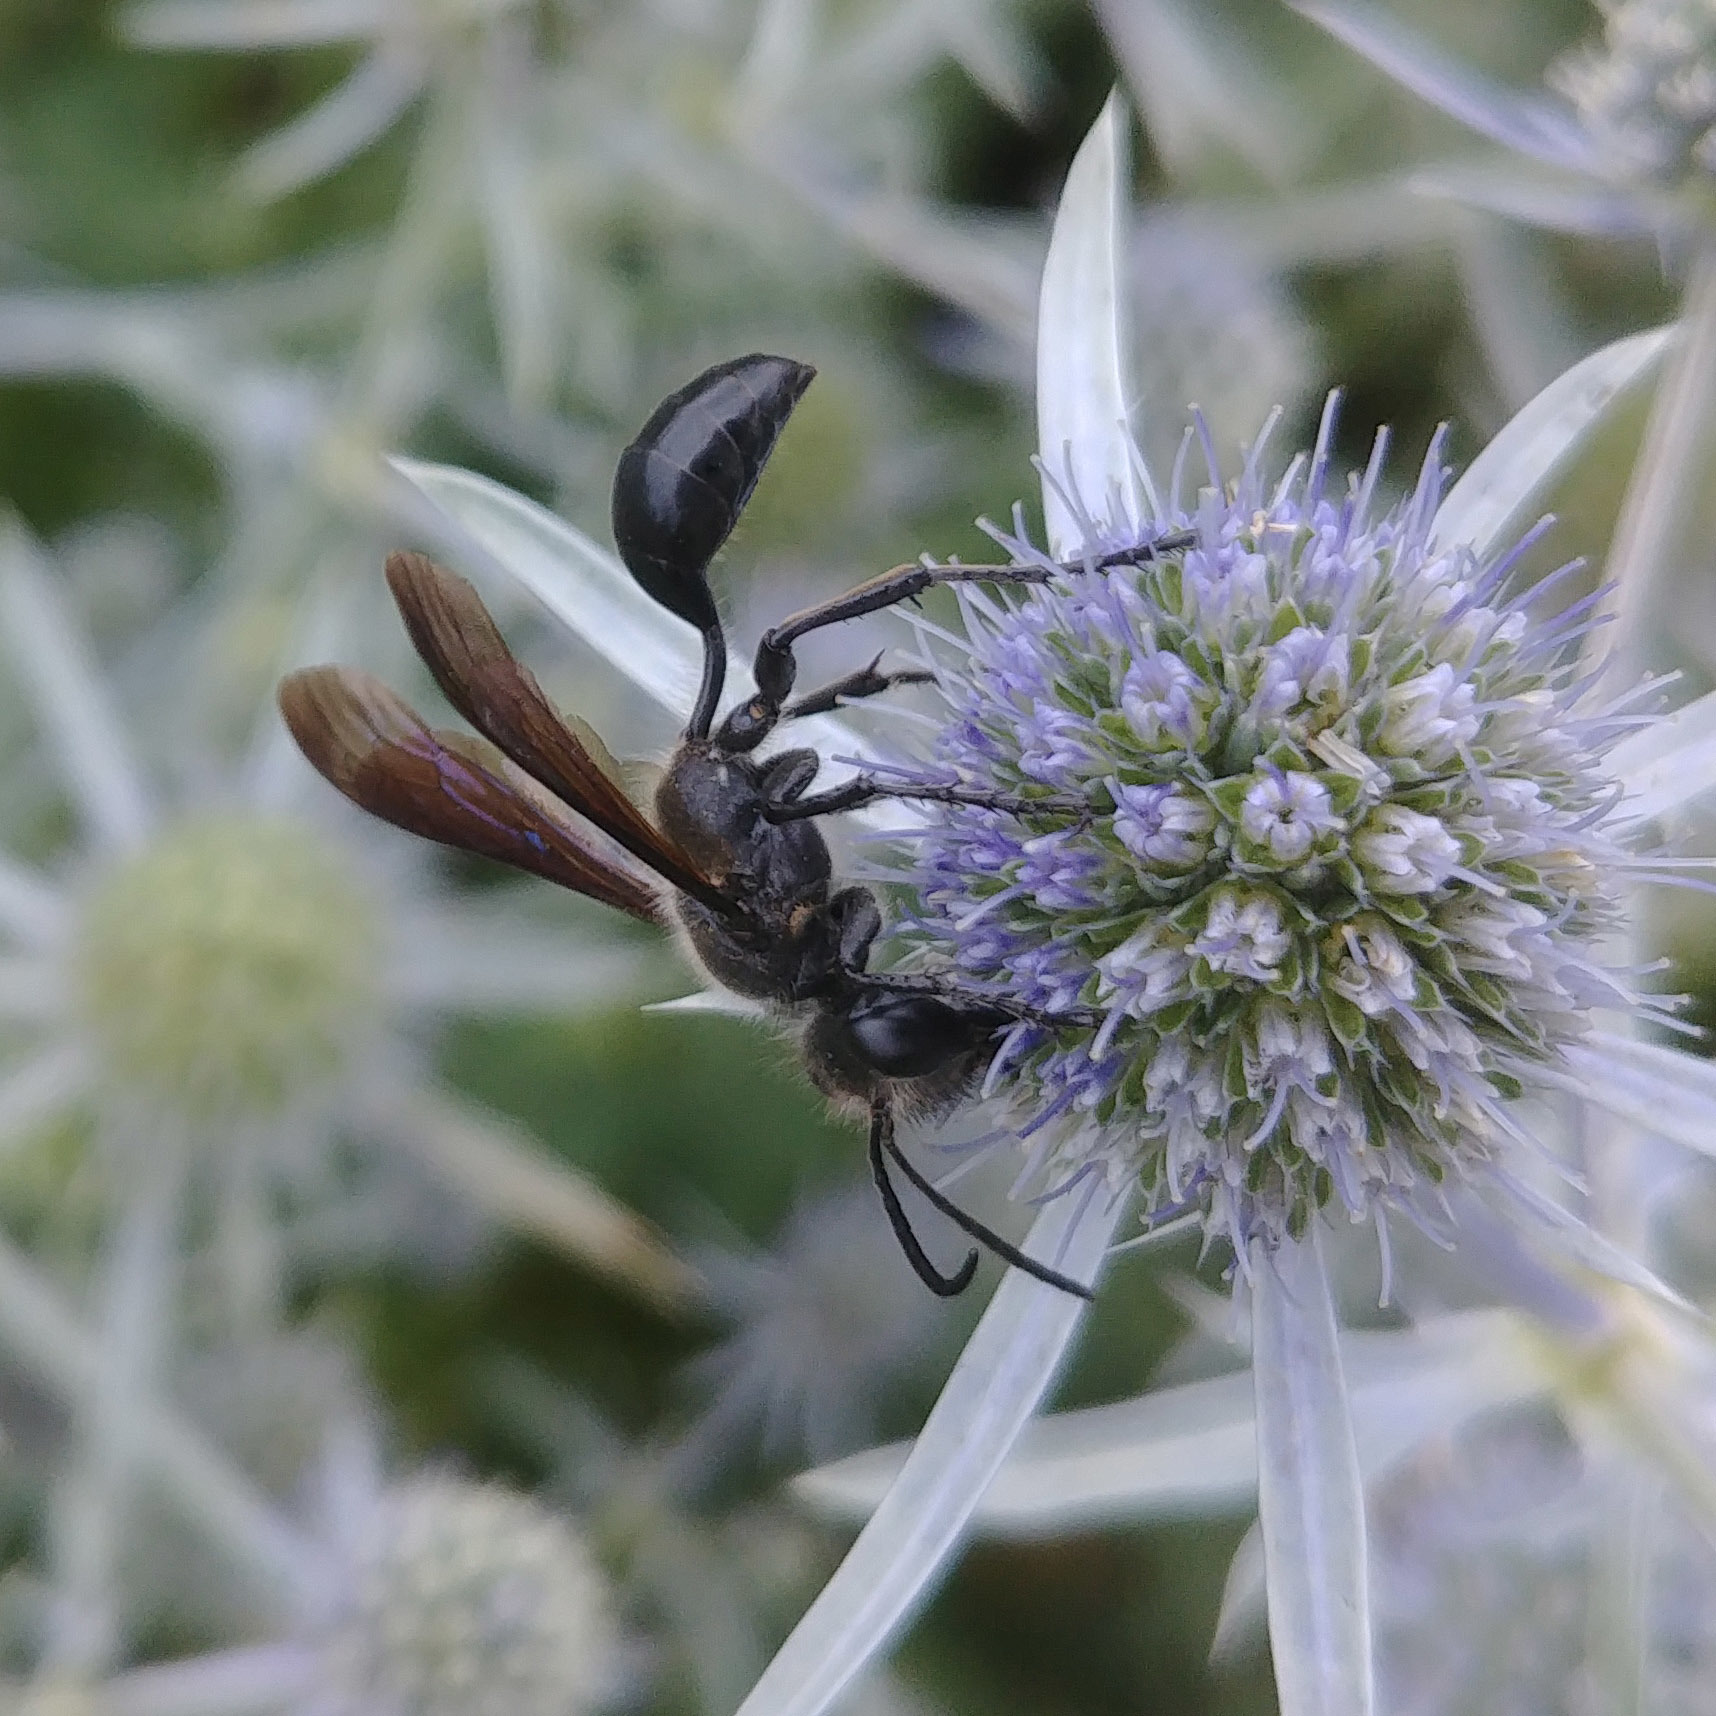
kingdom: Animalia
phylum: Arthropoda
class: Insecta
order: Hymenoptera
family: Sphecidae
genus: Isodontia
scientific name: Isodontia mexicana
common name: Mud dauber
